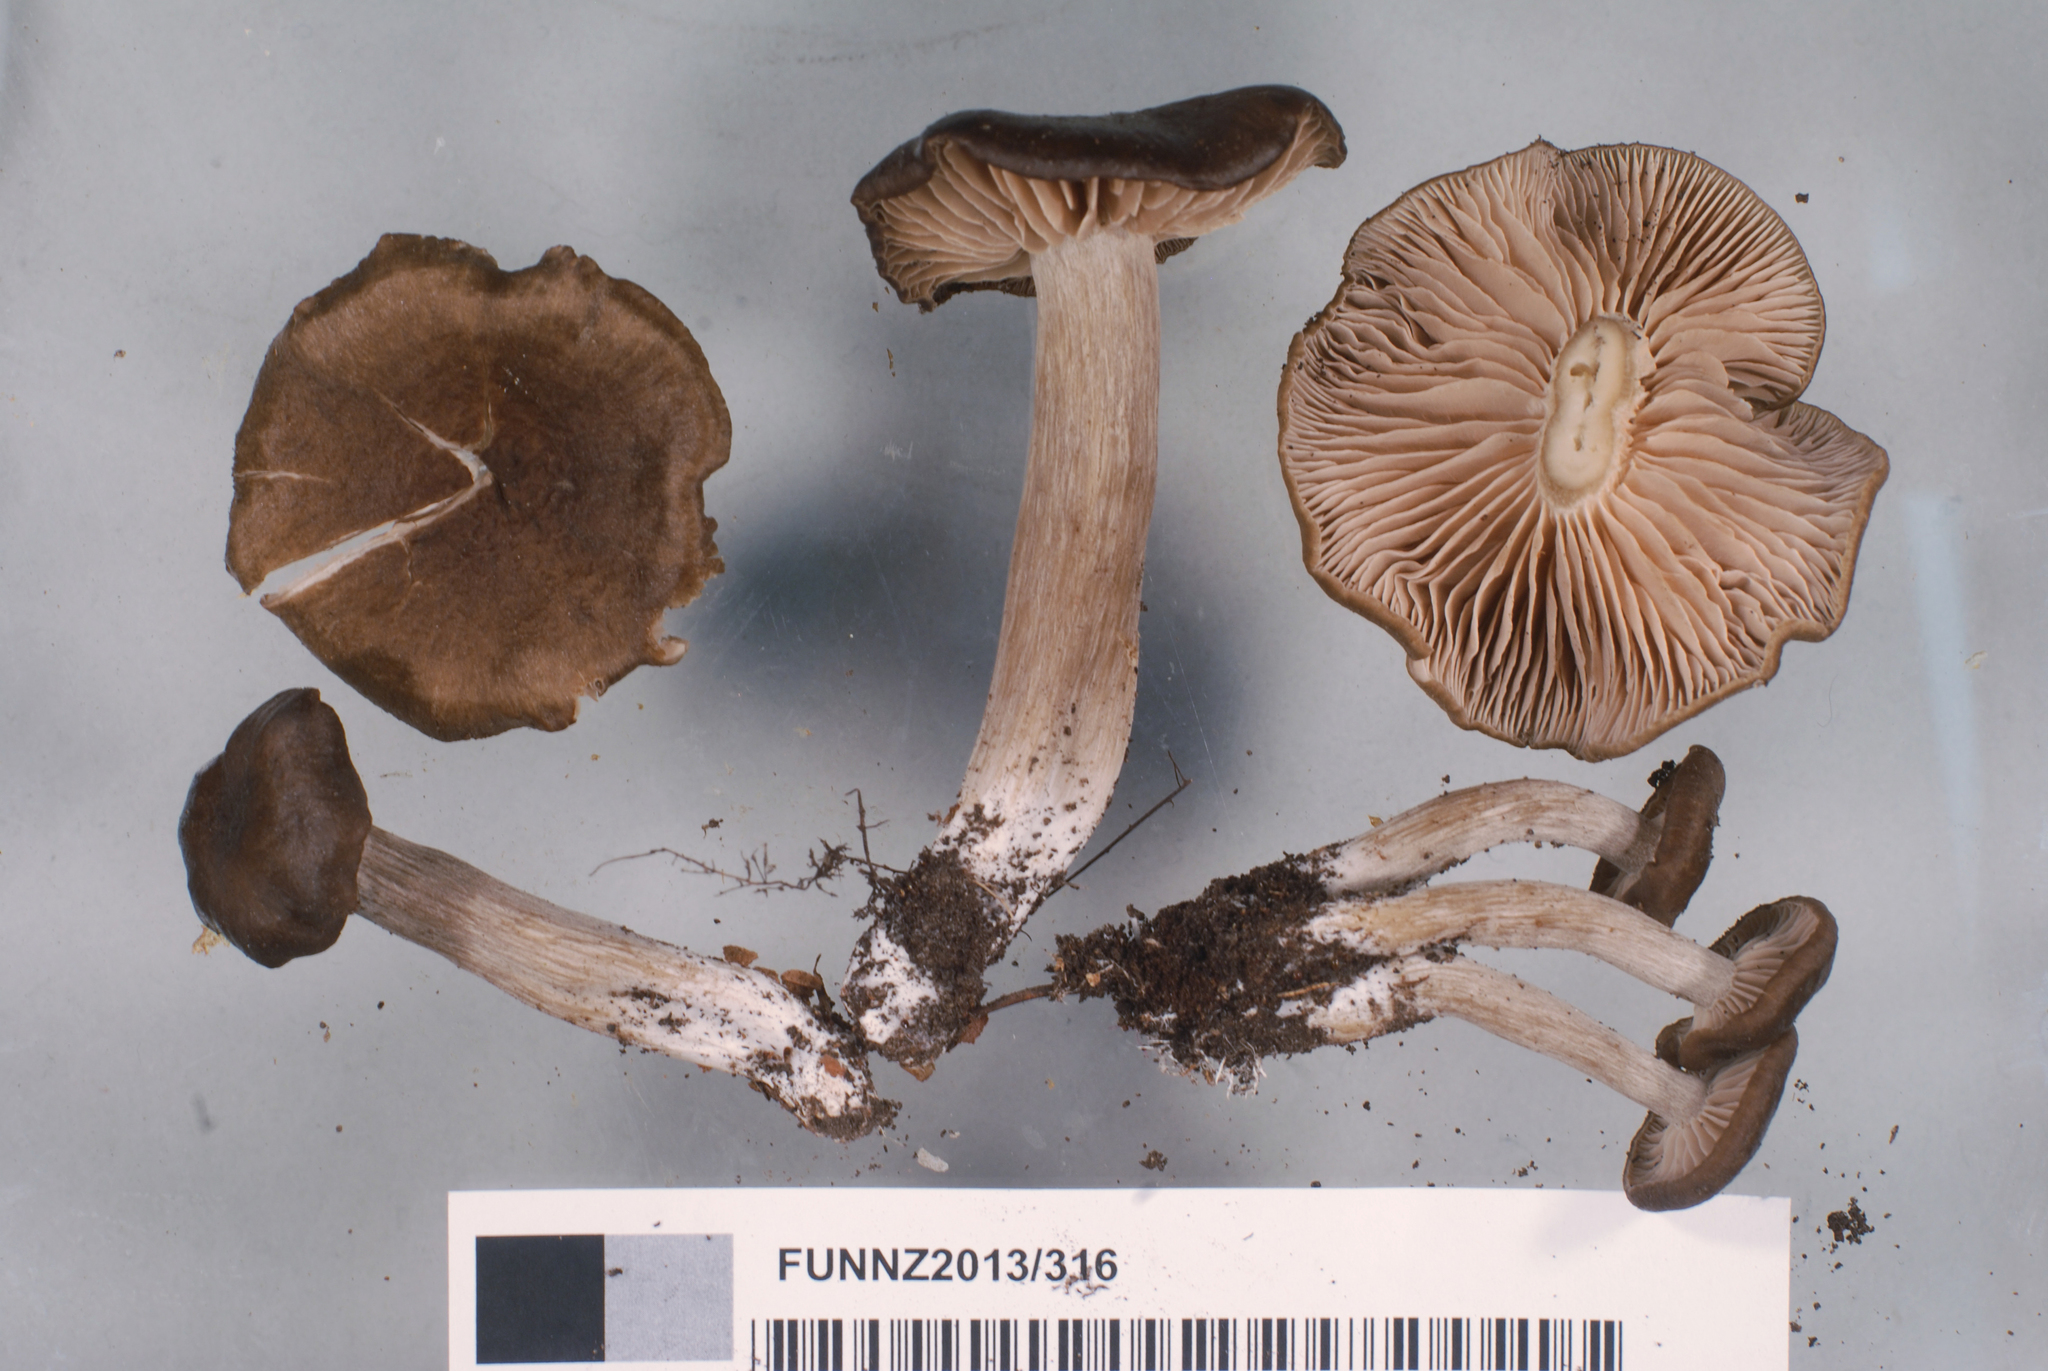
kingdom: Fungi
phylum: Basidiomycota
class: Agaricomycetes
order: Agaricales
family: Entolomataceae
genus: Entoloma
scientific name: Entoloma bryorum
